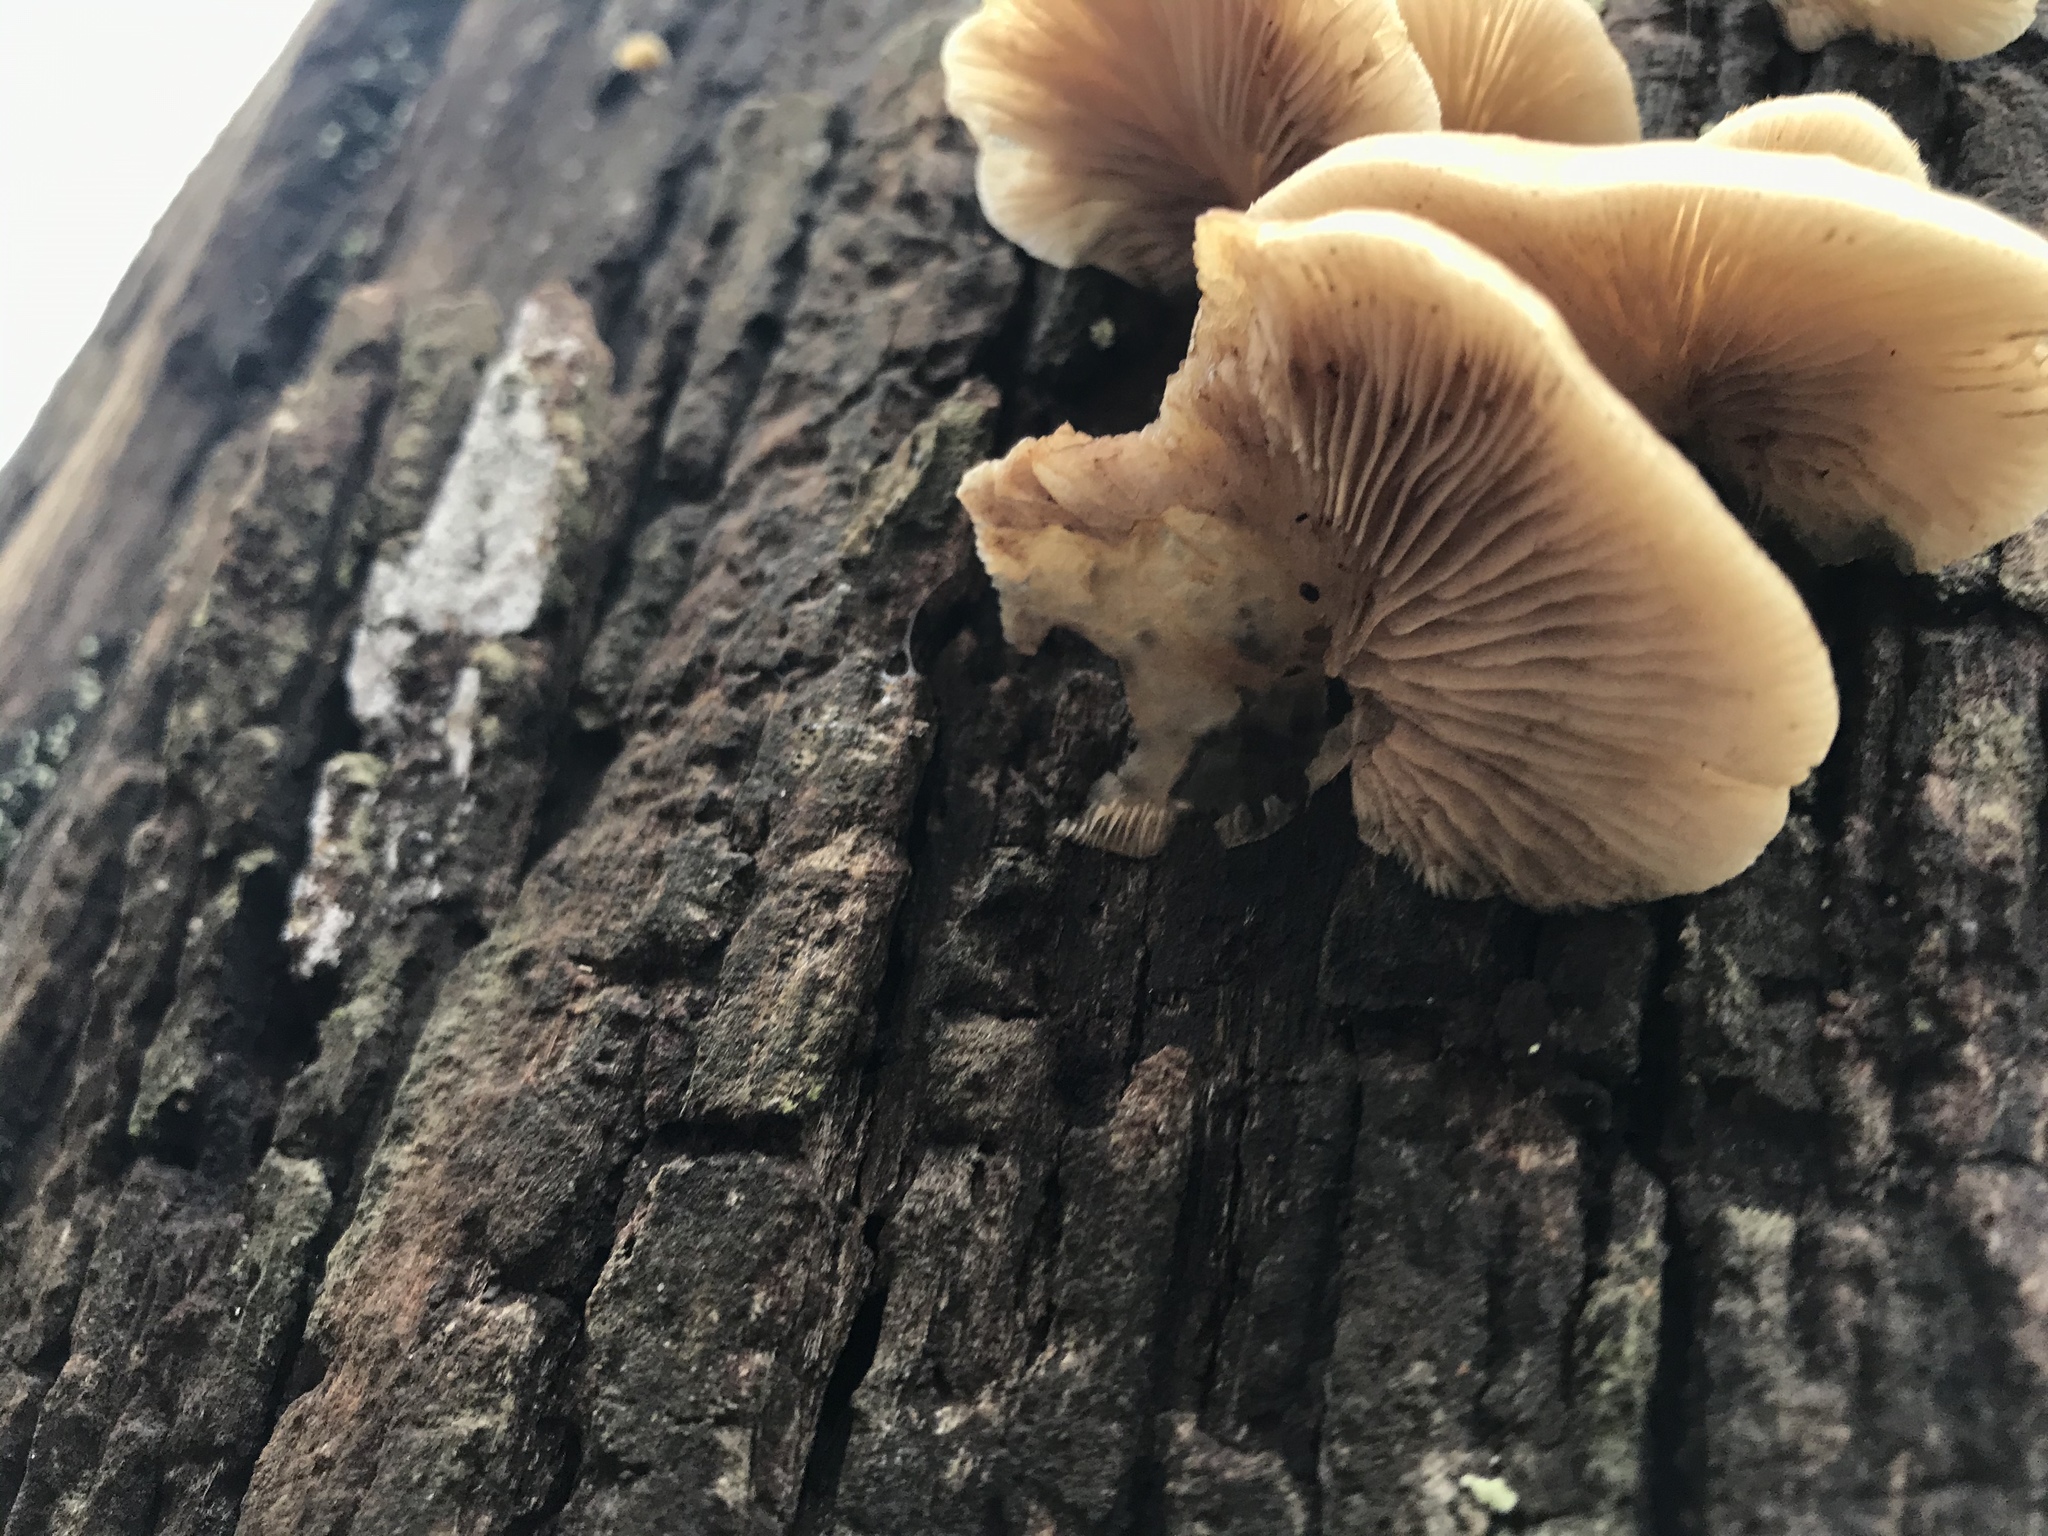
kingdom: Fungi
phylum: Basidiomycota
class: Agaricomycetes
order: Agaricales
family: Crepidotaceae
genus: Crepidotus
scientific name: Crepidotus mollis
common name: Peeling oysterling
